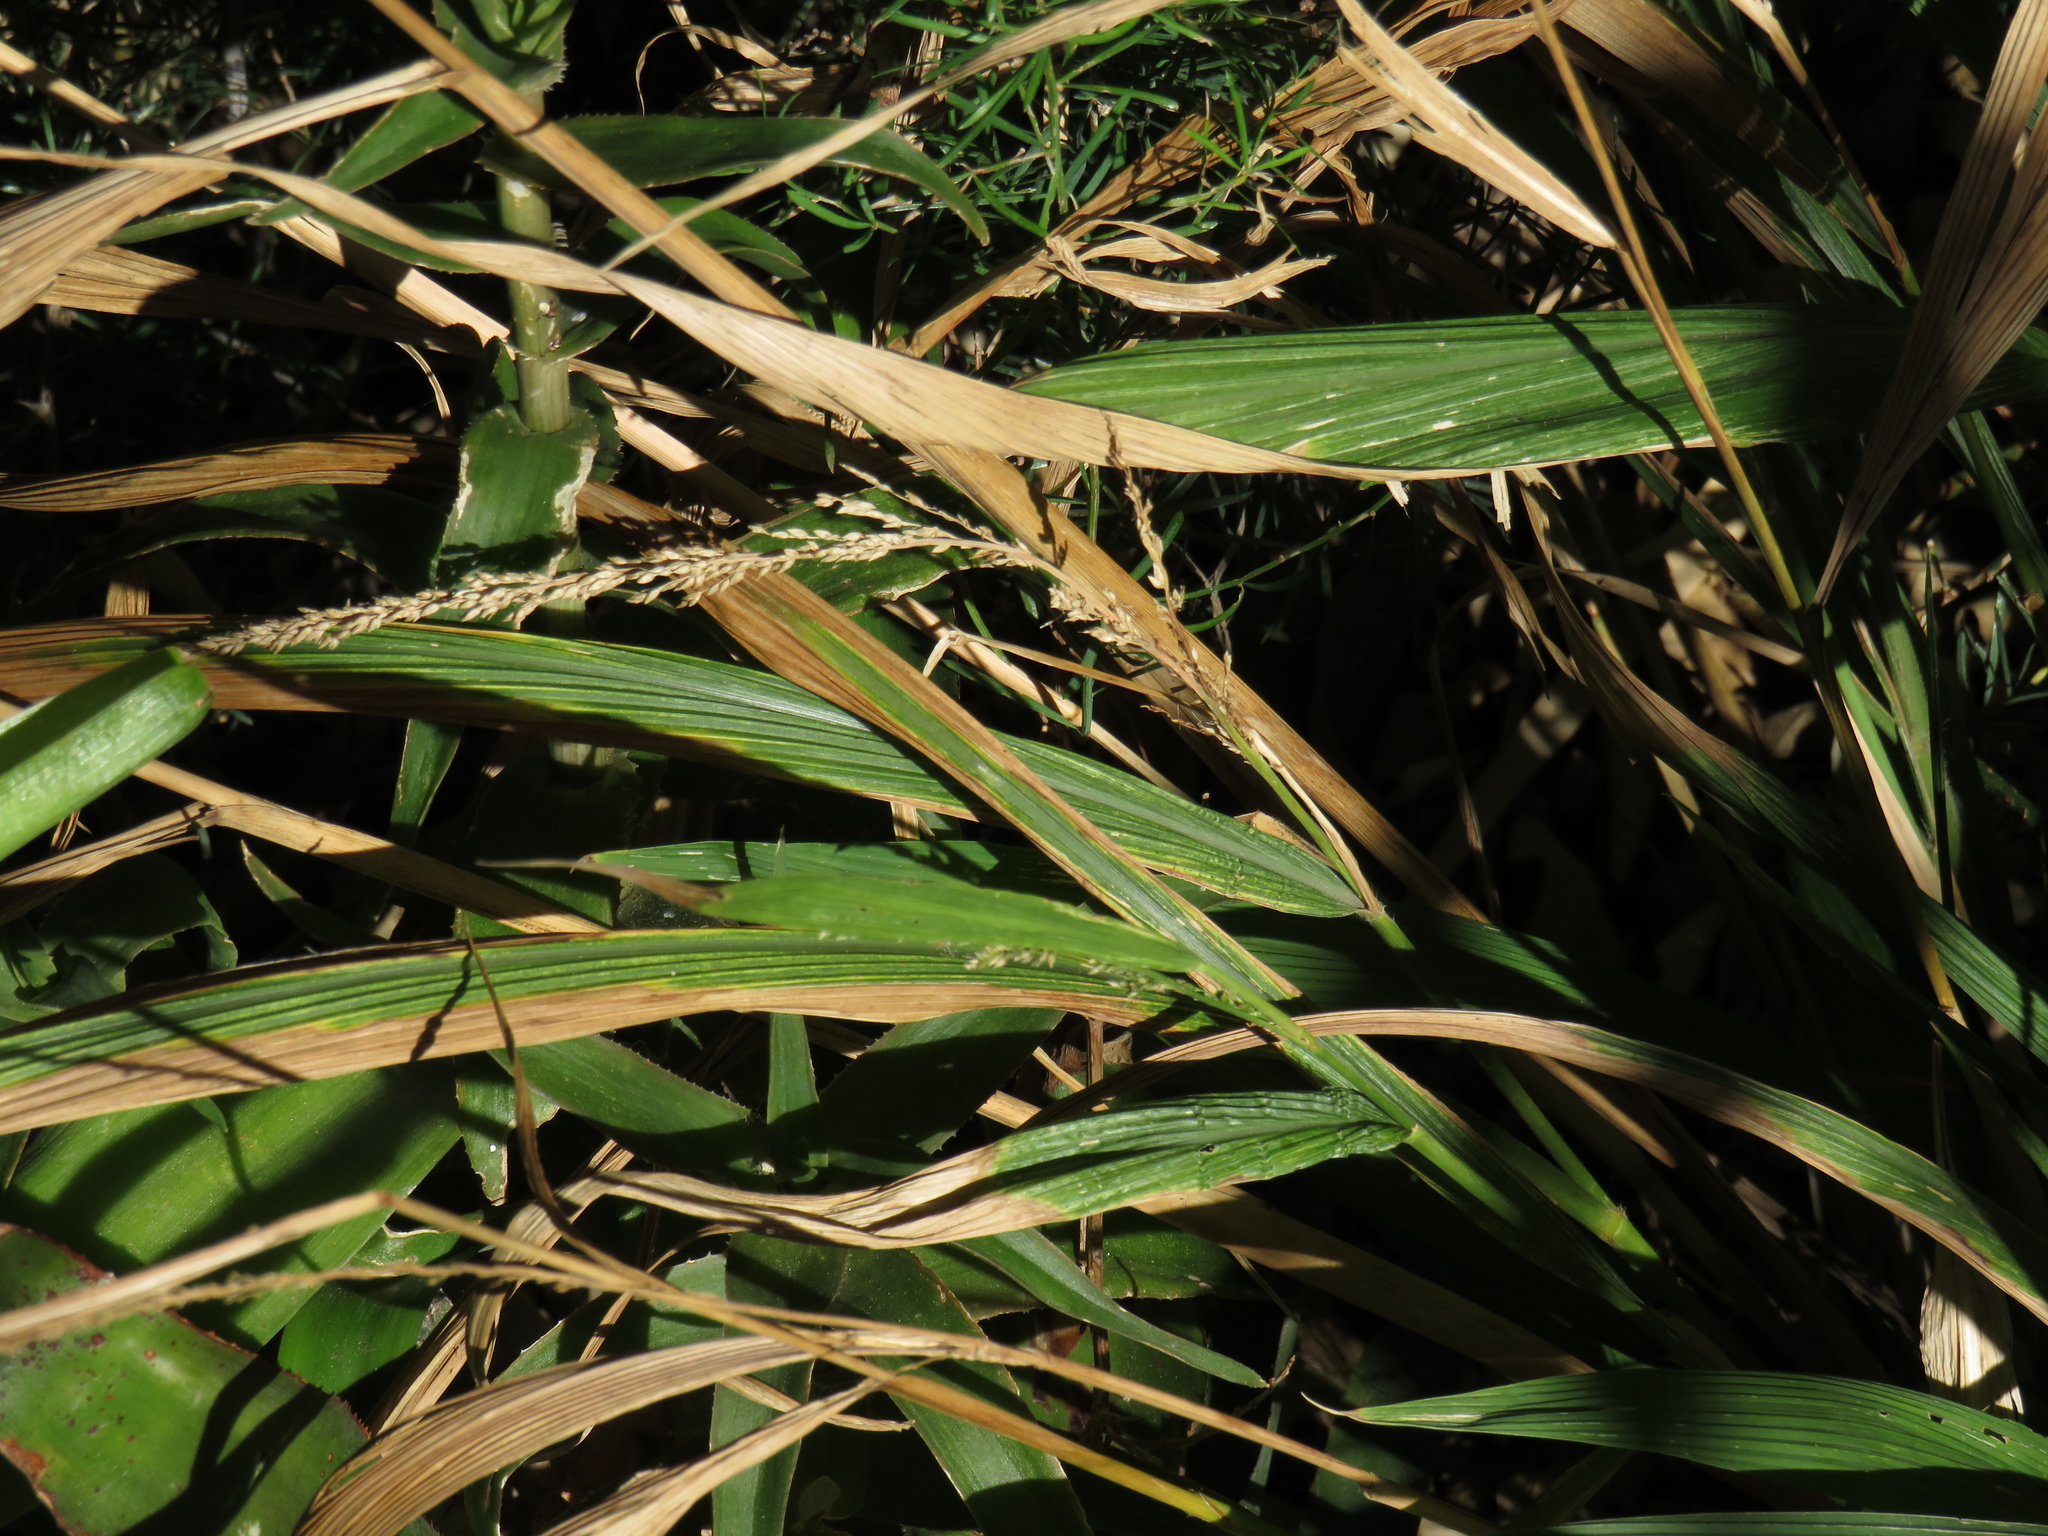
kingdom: Plantae
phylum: Tracheophyta
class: Liliopsida
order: Poales
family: Poaceae
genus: Setaria
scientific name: Setaria megaphylla
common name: Bigleaf bristlegrass
